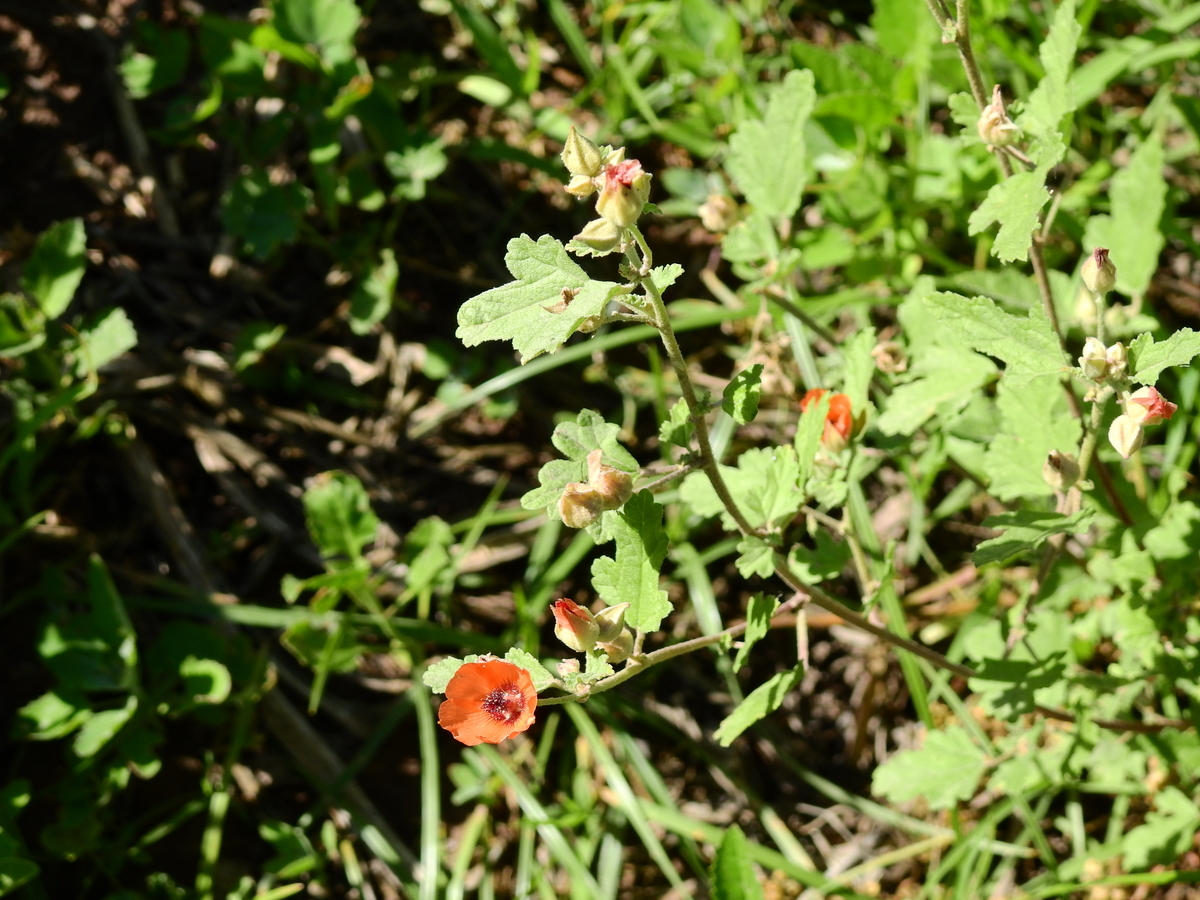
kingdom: Plantae
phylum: Tracheophyta
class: Magnoliopsida
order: Malvales
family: Malvaceae
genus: Sphaeralcea
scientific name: Sphaeralcea miniata
